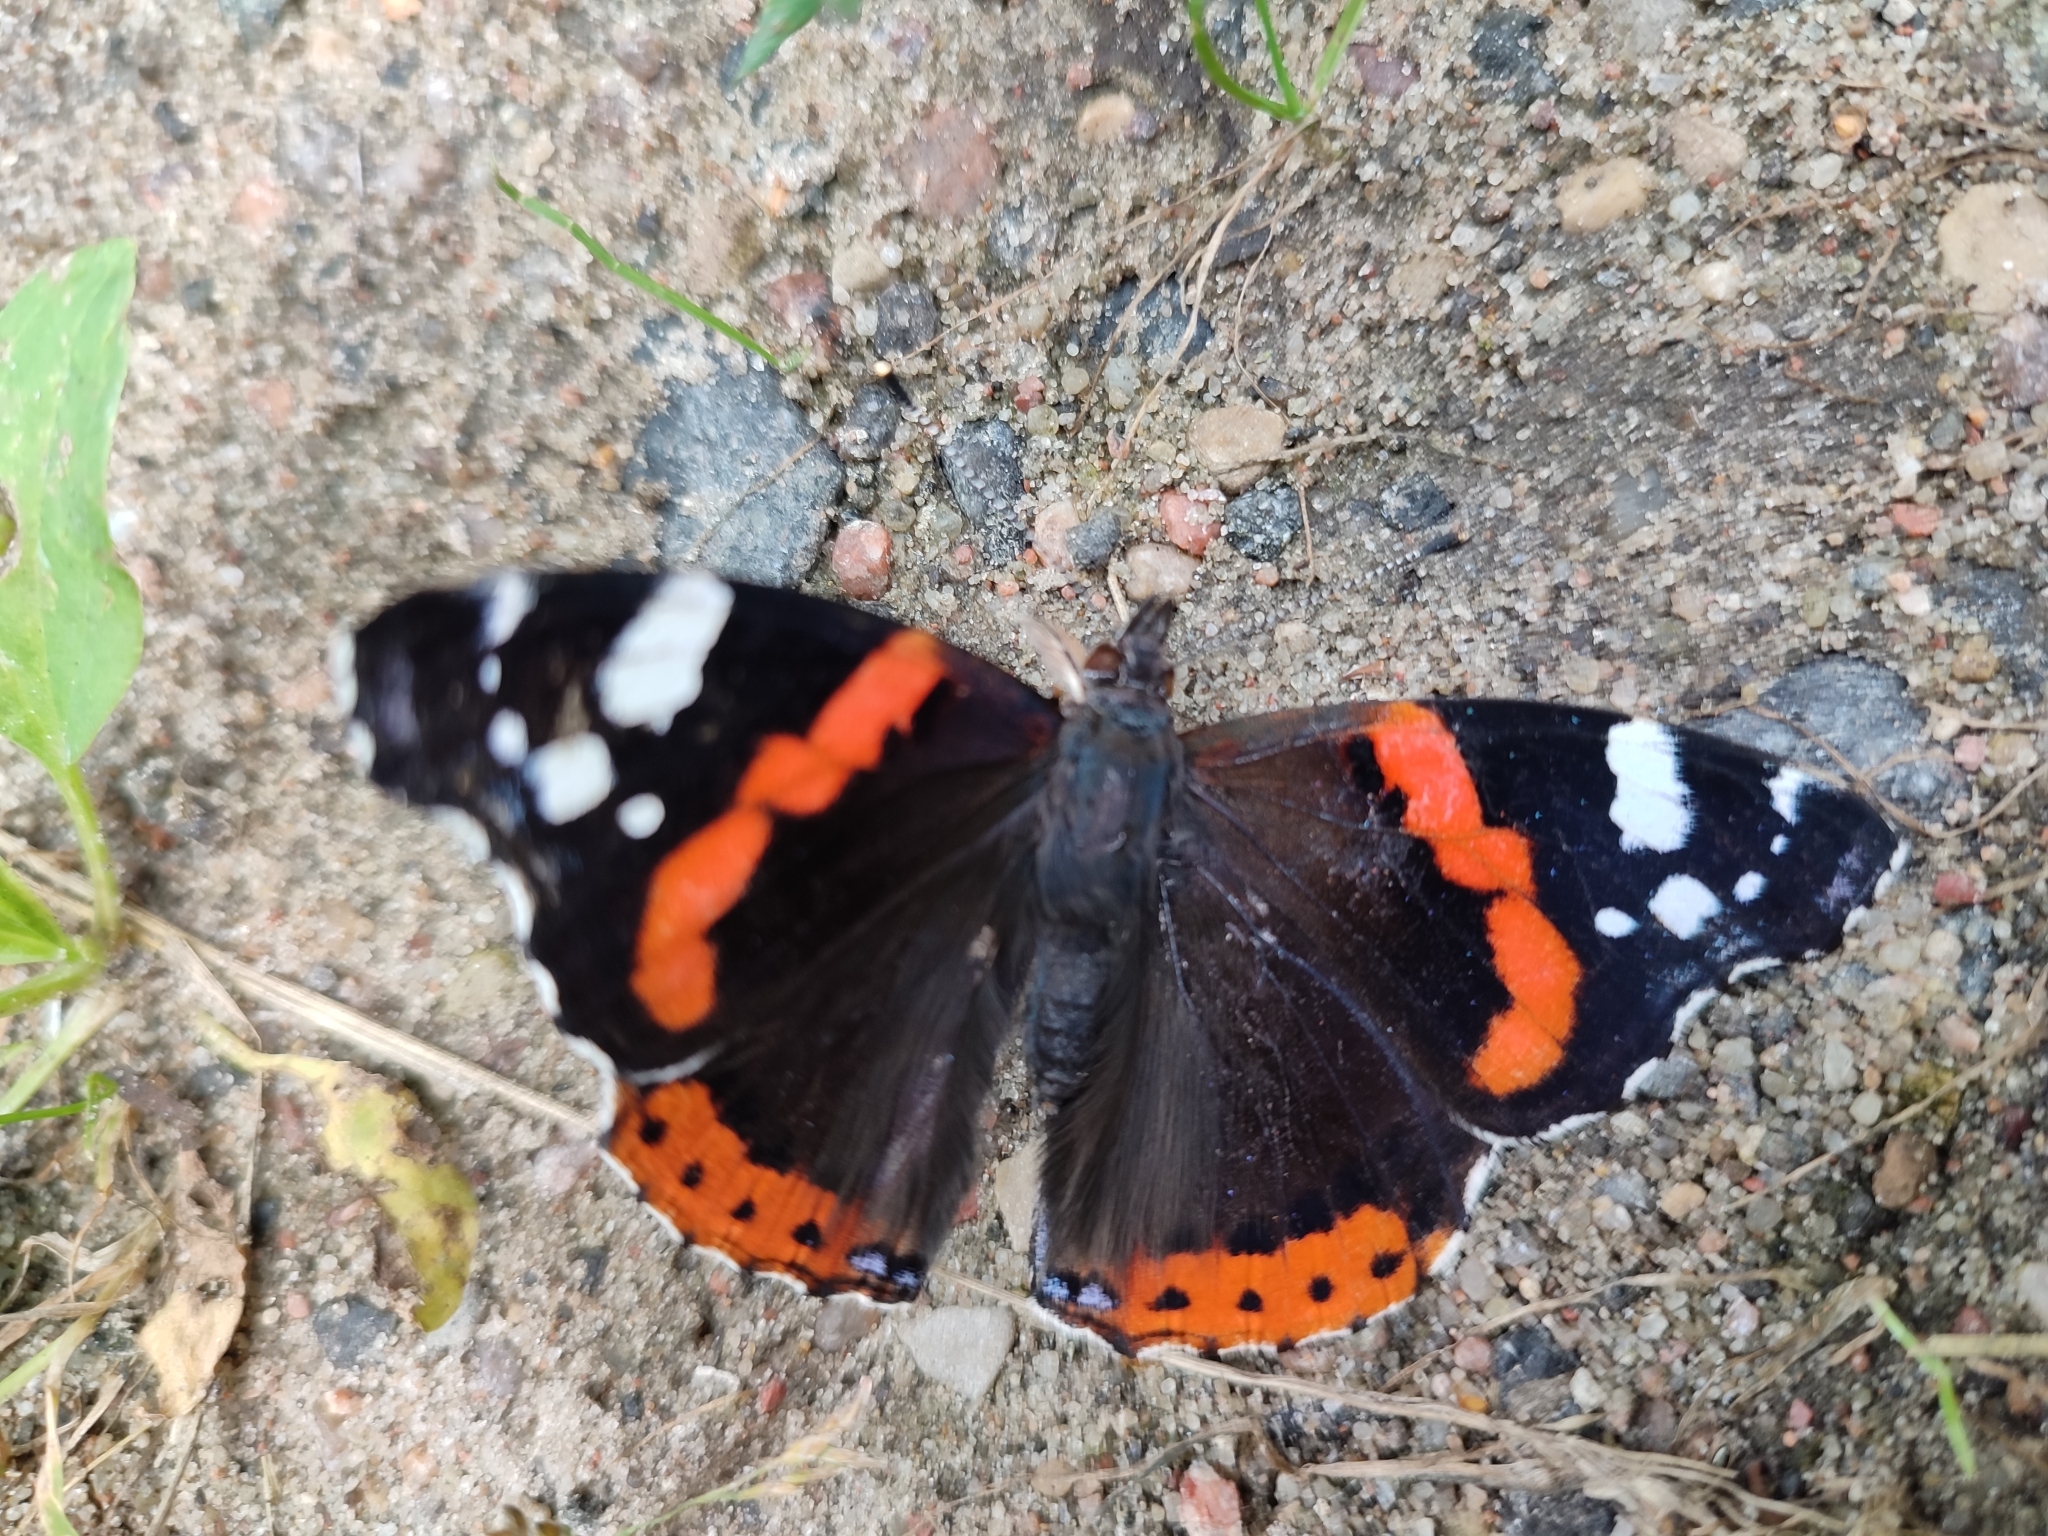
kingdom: Animalia
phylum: Arthropoda
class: Insecta
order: Lepidoptera
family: Nymphalidae
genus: Vanessa
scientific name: Vanessa atalanta
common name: Red admiral
